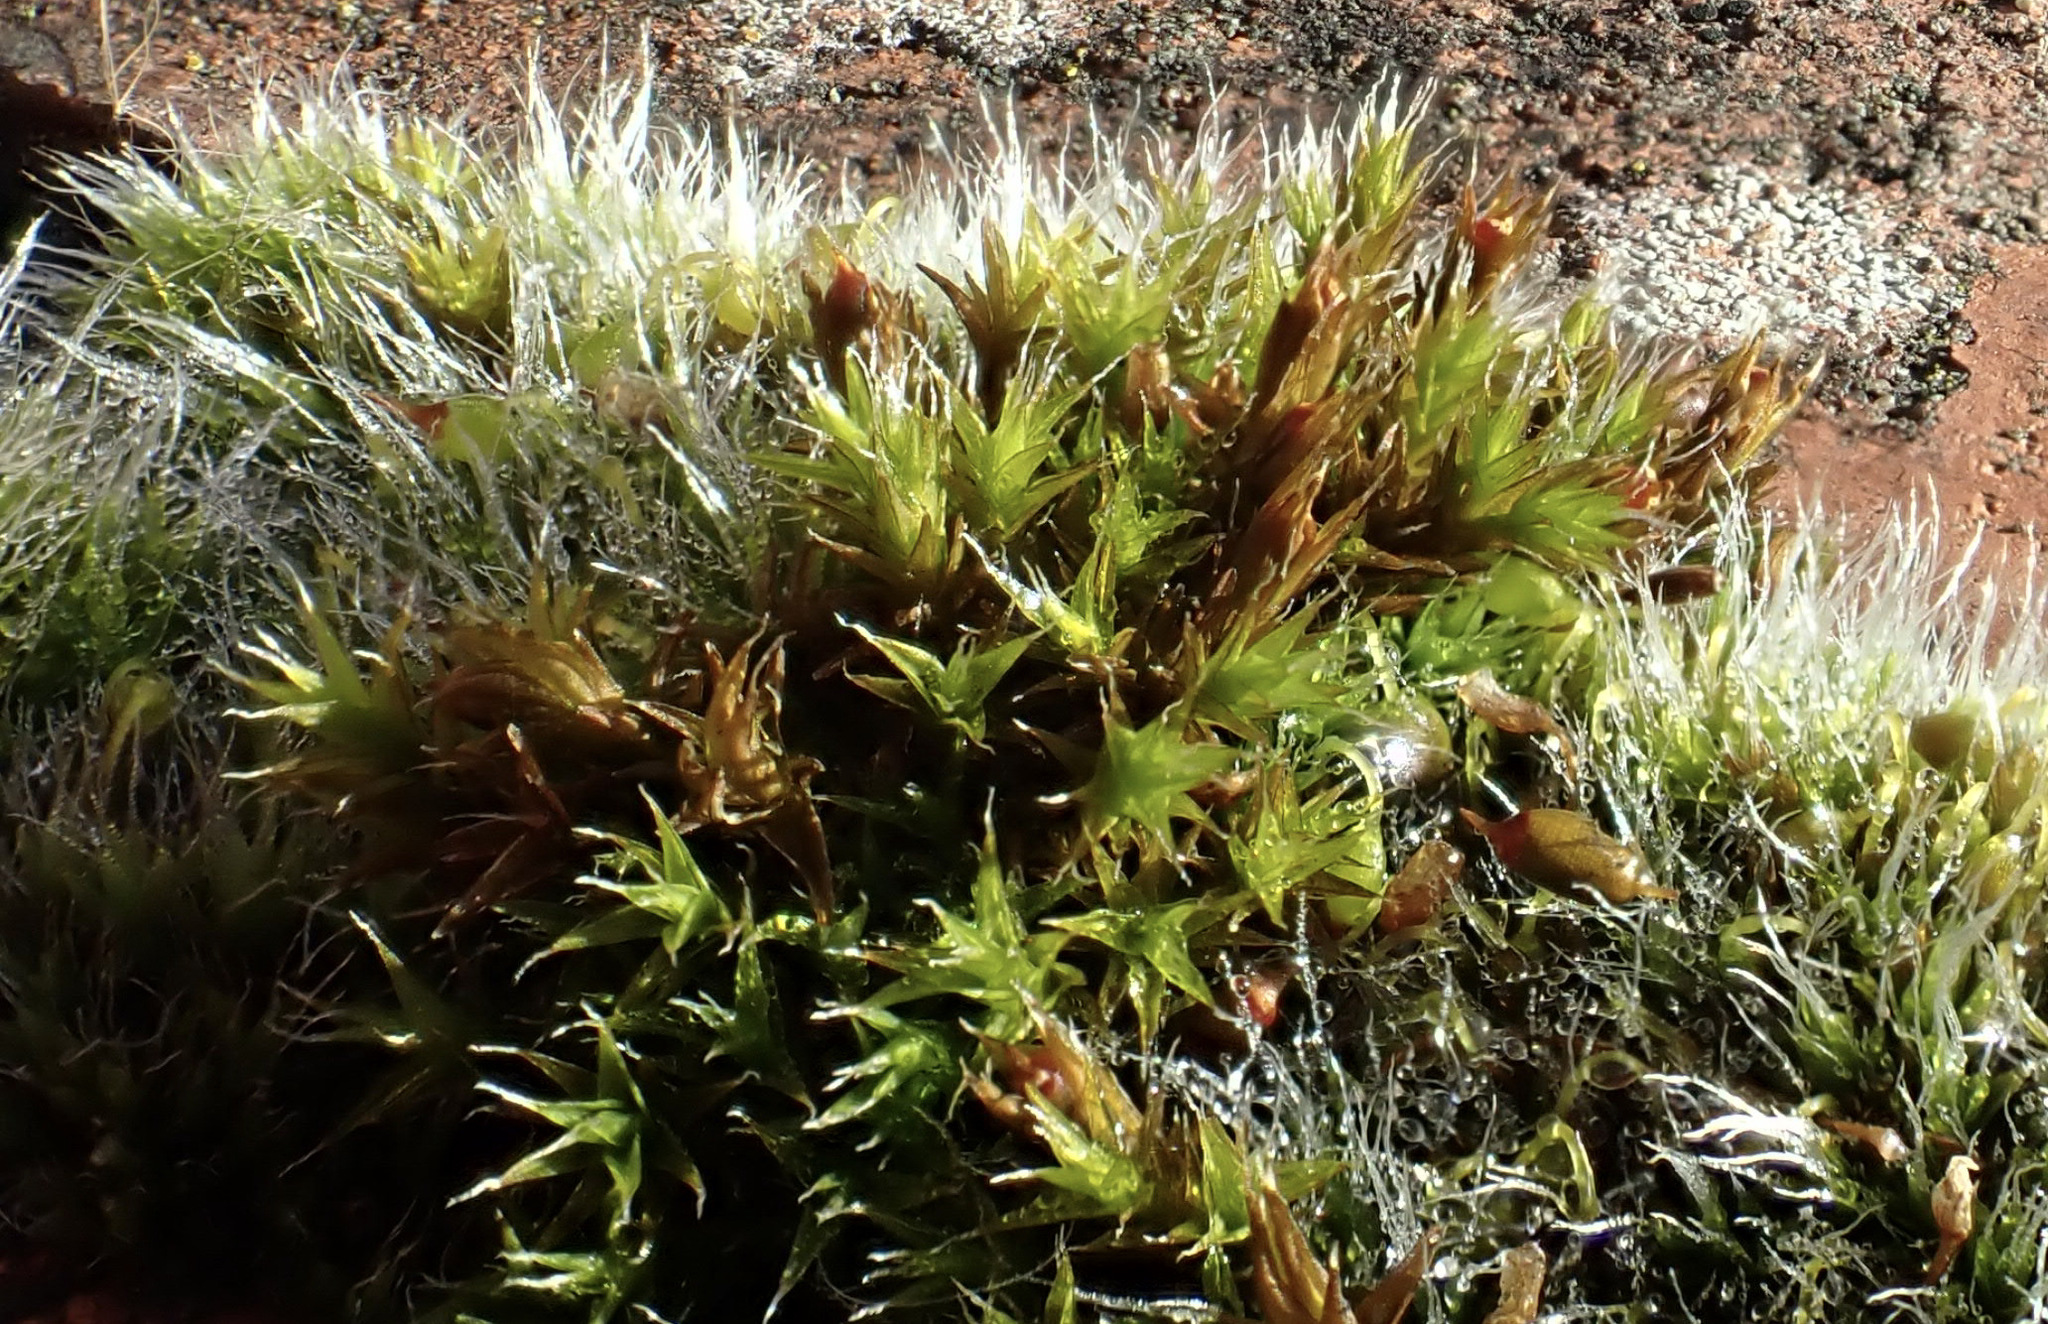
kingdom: Plantae
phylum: Bryophyta
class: Bryopsida
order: Grimmiales
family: Grimmiaceae
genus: Schistidium
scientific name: Schistidium crassipilum
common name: Thickpoint bloom moss
